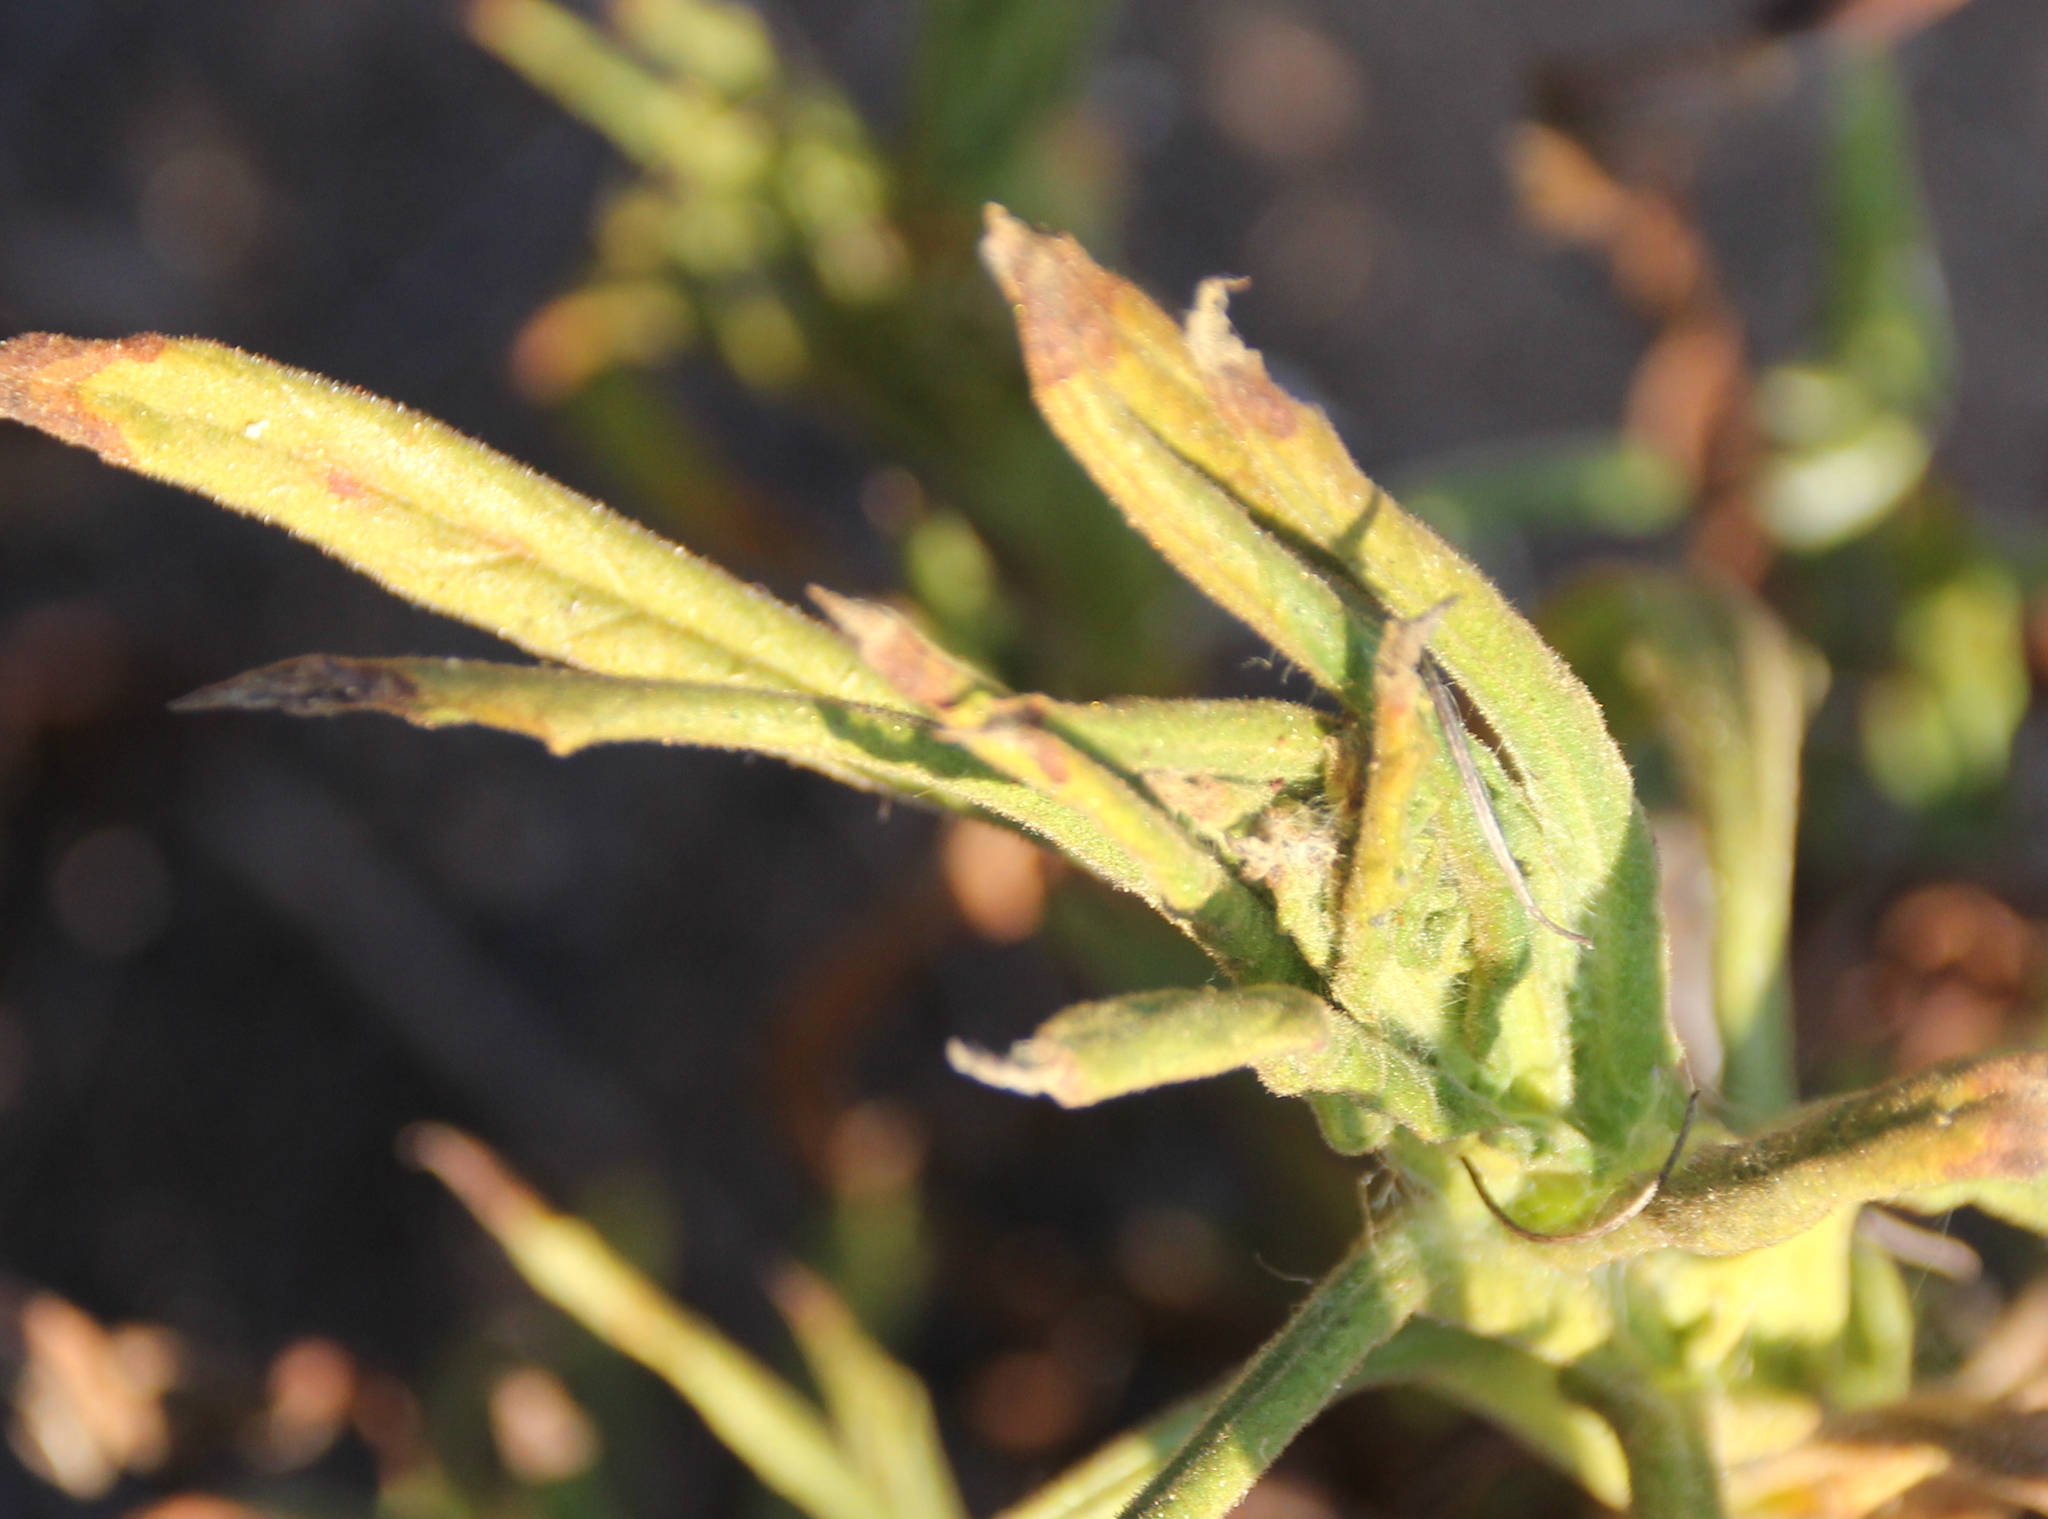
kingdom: Plantae
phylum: Tracheophyta
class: Magnoliopsida
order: Asterales
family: Asteraceae
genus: Pseudognaphalium
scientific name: Pseudognaphalium californicum
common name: California rabbit-tobacco
